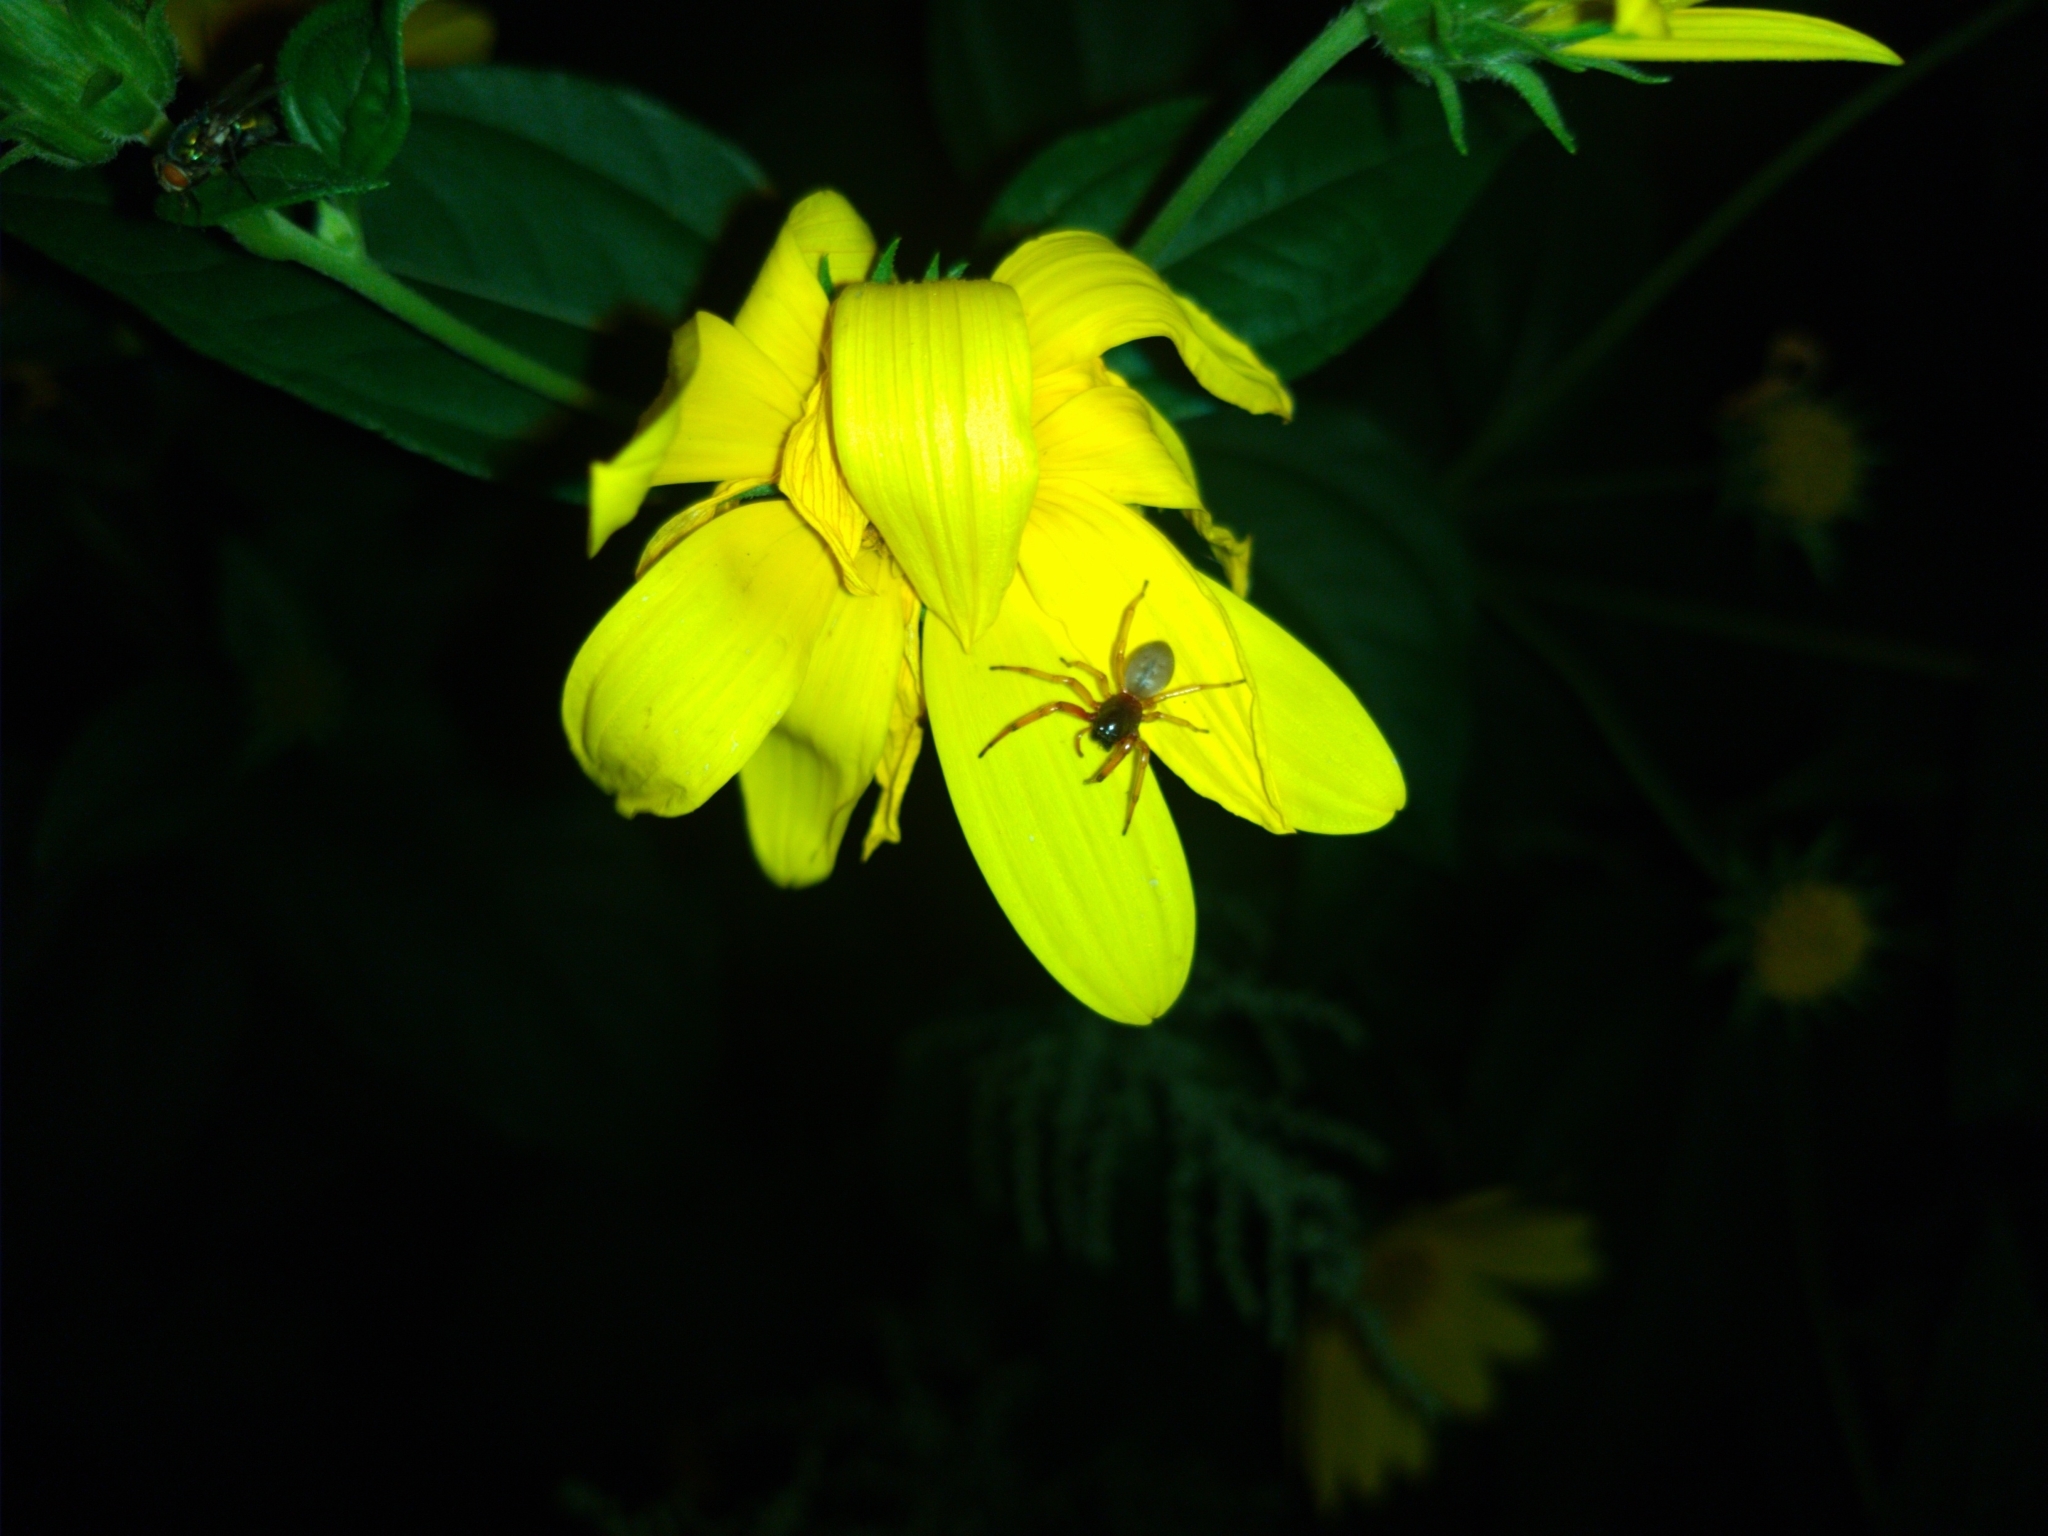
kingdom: Animalia
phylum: Arthropoda
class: Arachnida
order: Araneae
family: Trachelidae
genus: Trachelas
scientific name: Trachelas tranquillus
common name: Broad-faced sac spider
